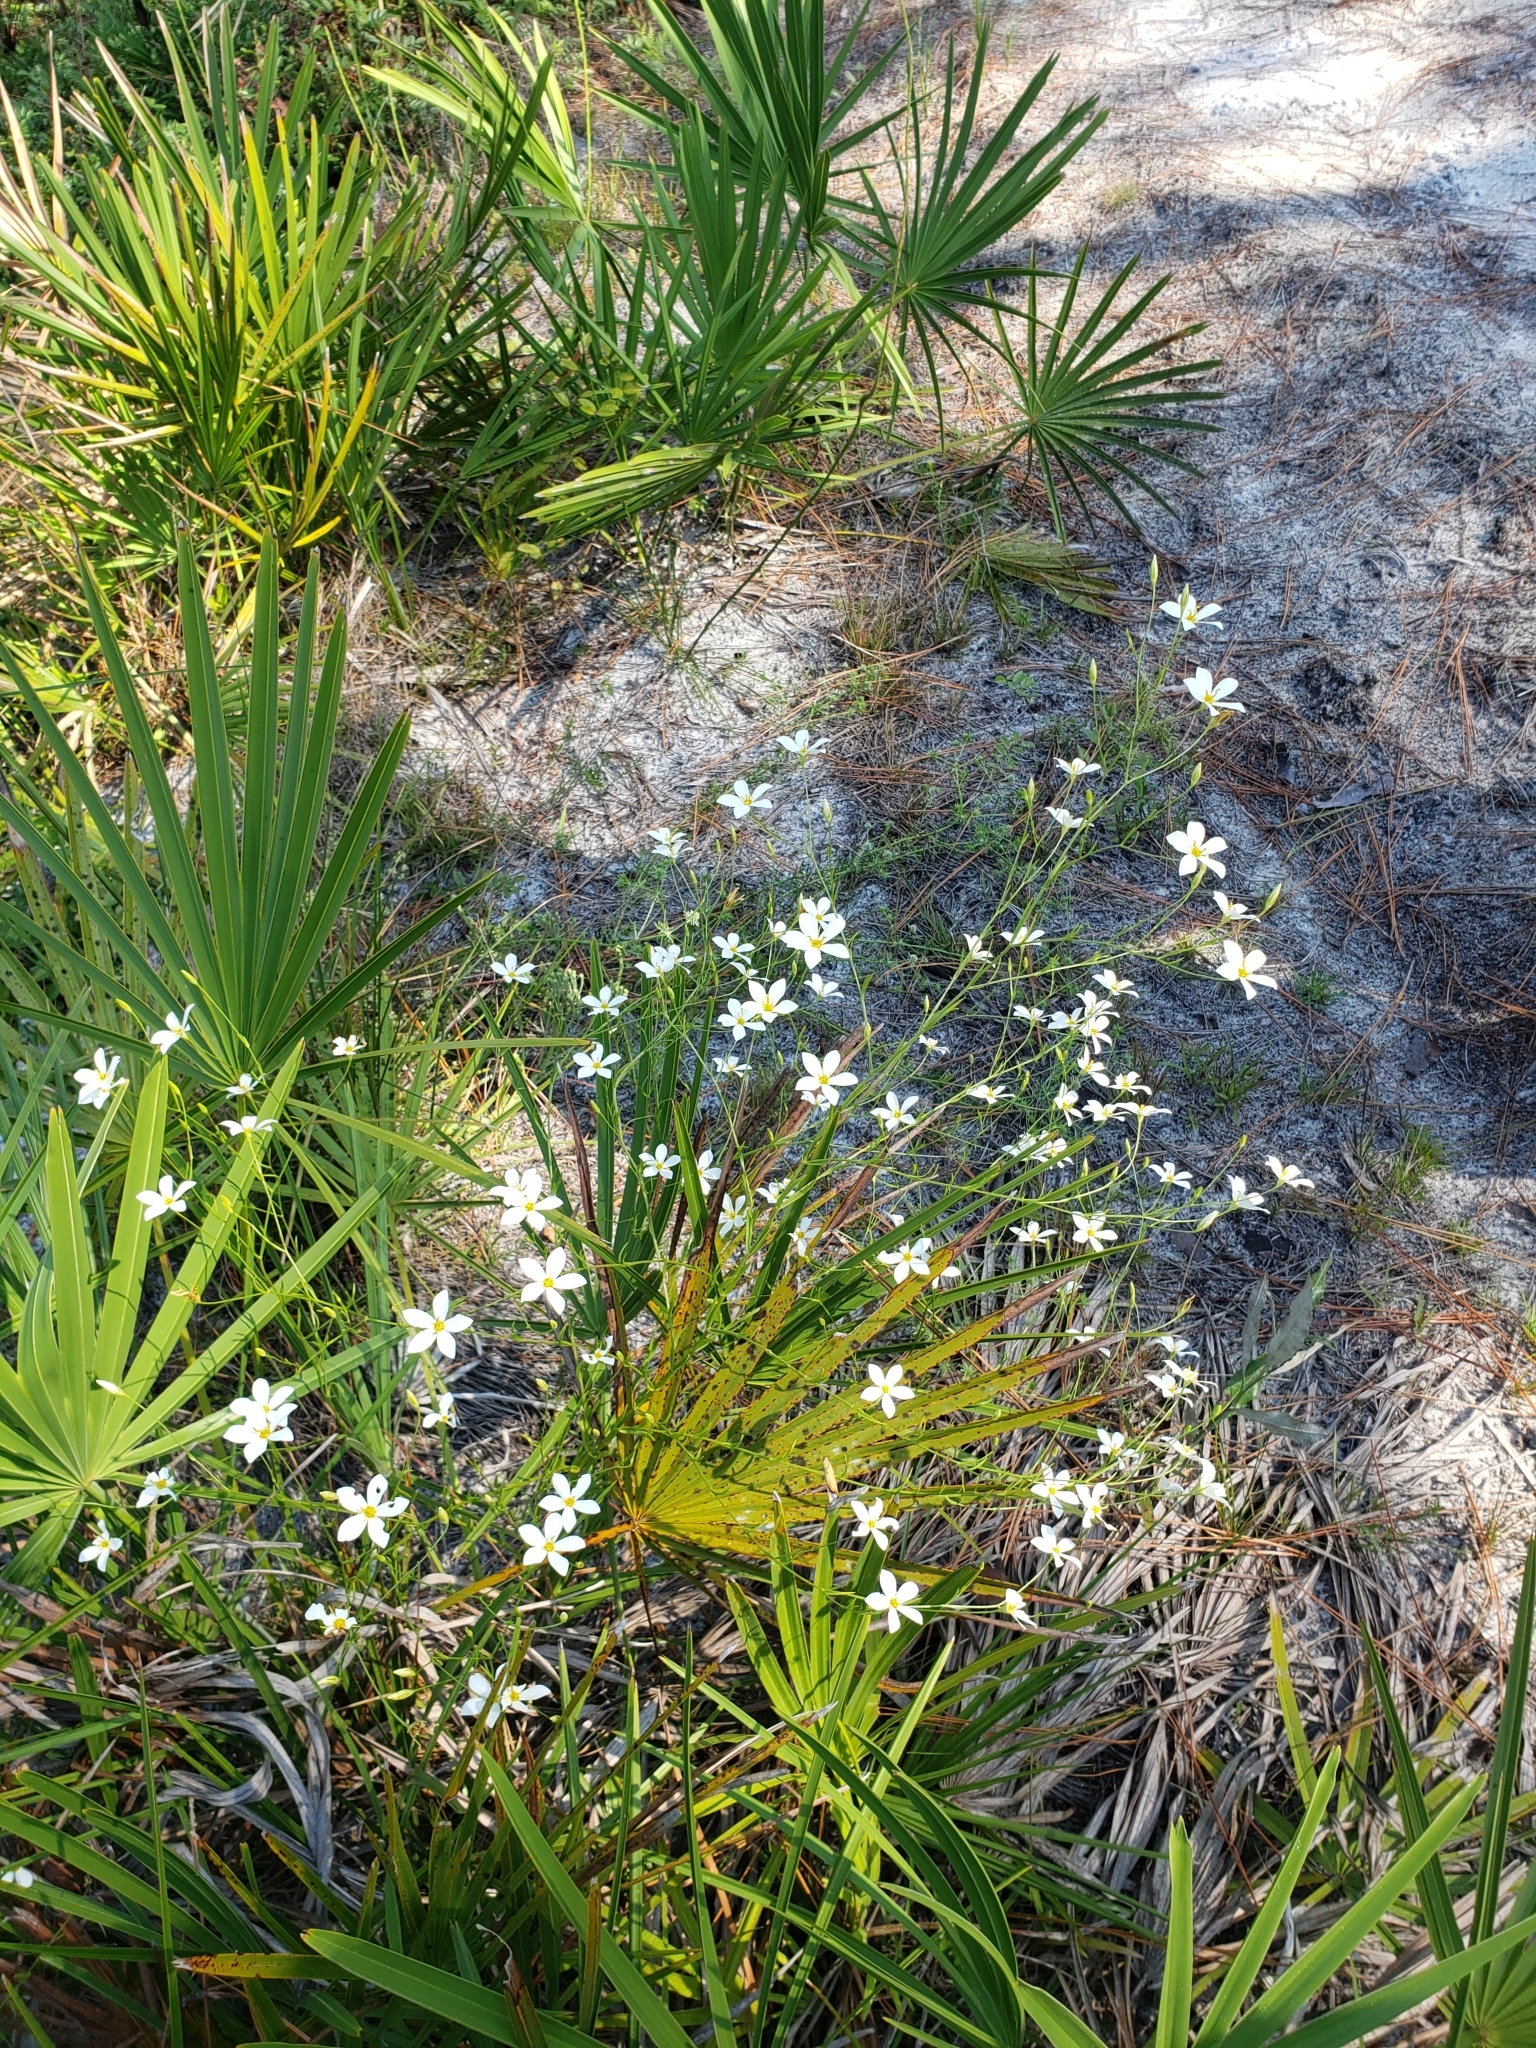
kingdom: Plantae
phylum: Tracheophyta
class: Magnoliopsida
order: Gentianales
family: Gentianaceae
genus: Sabatia
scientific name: Sabatia brevifolia
